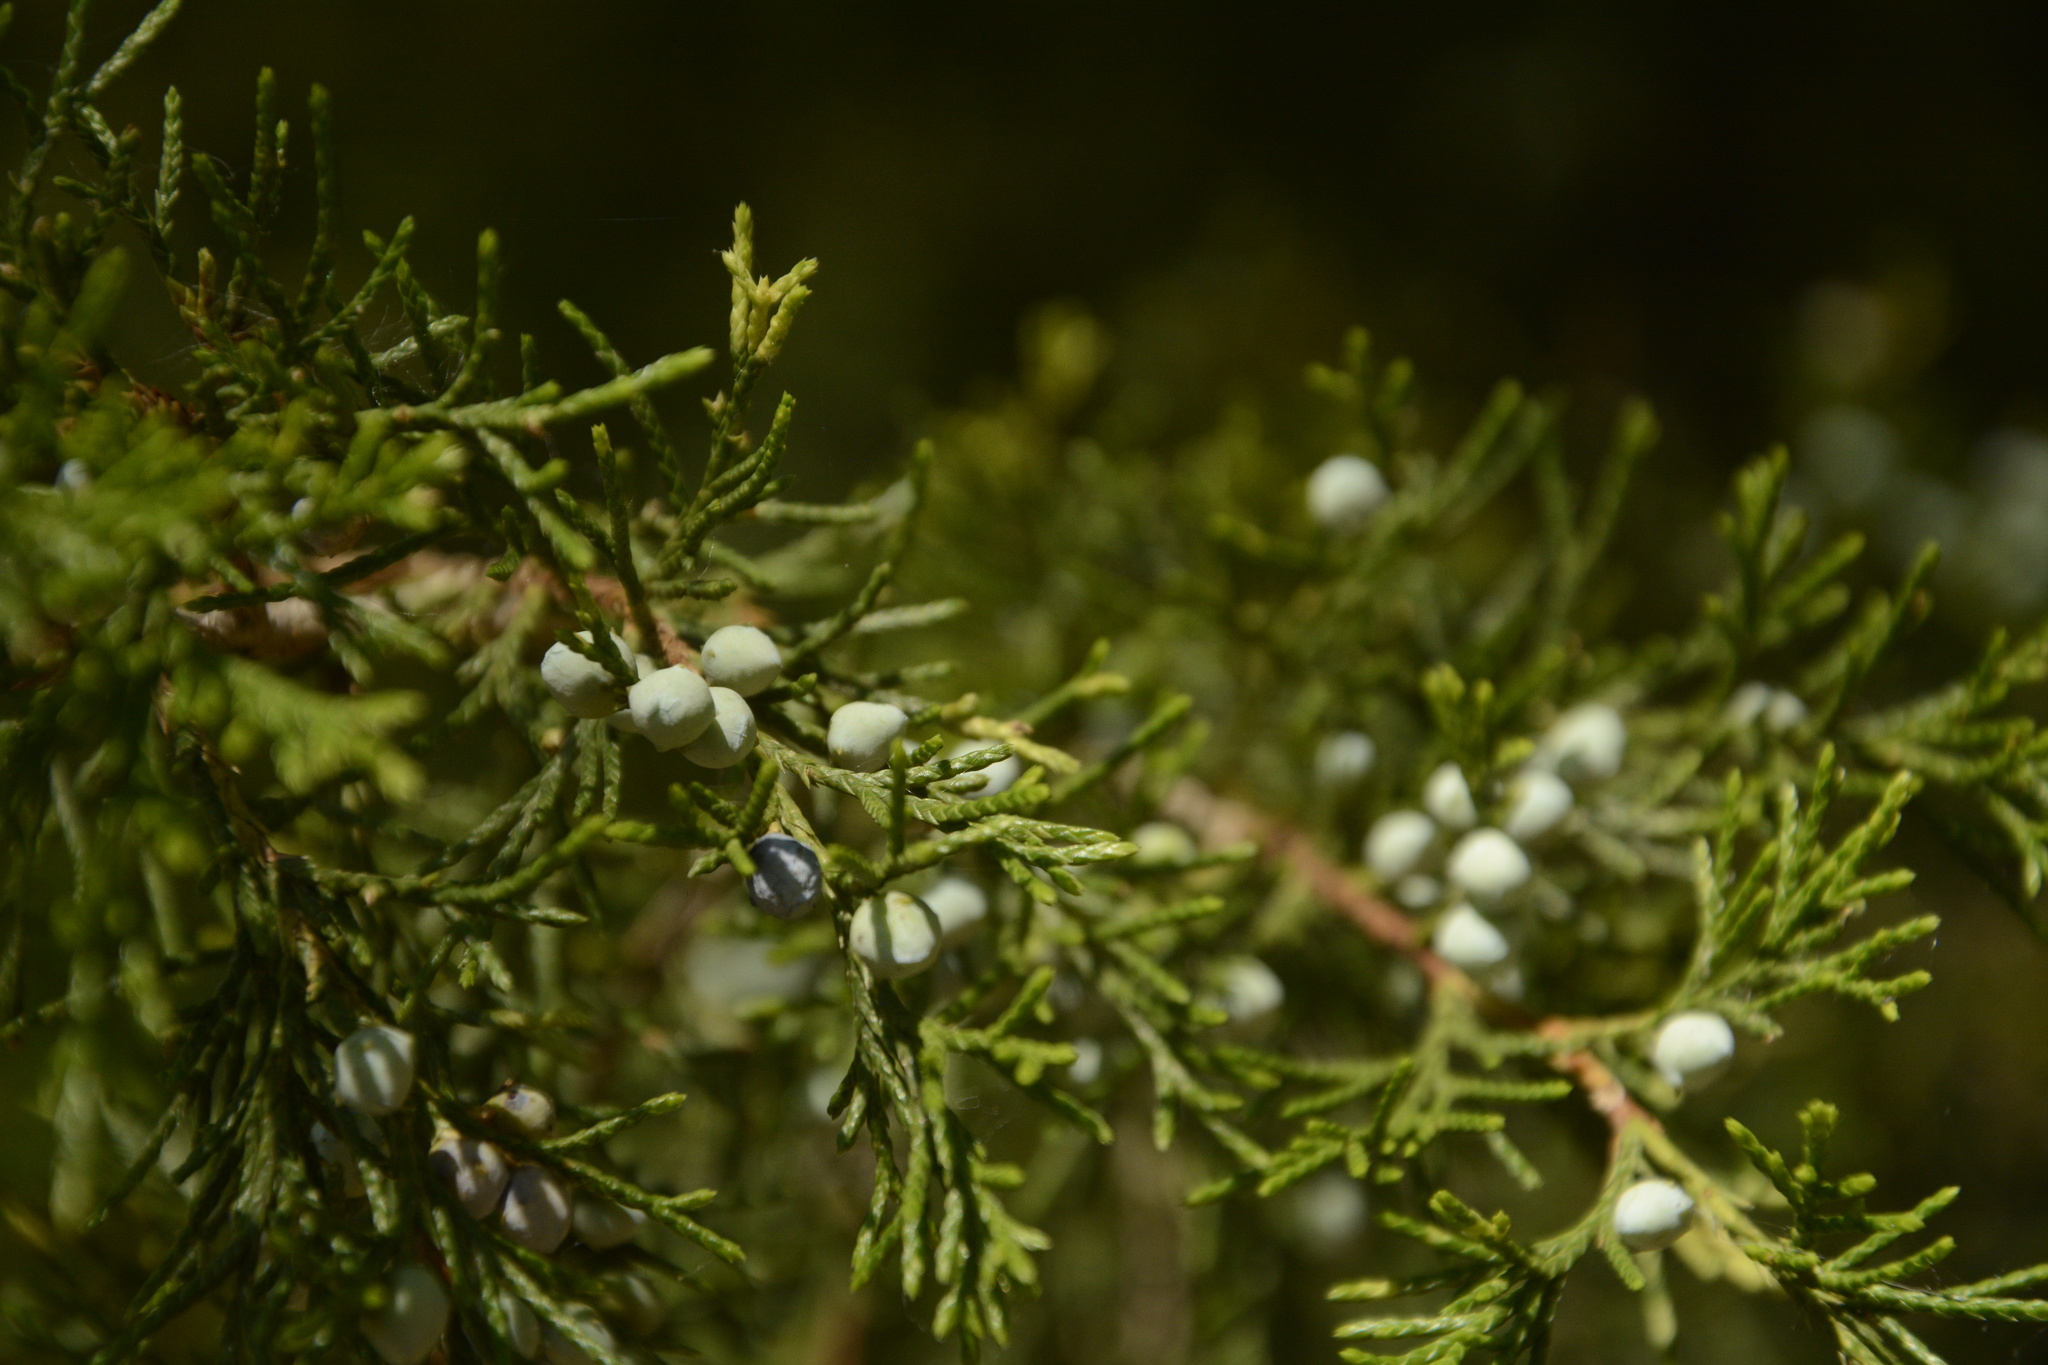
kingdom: Plantae
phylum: Tracheophyta
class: Pinopsida
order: Pinales
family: Cupressaceae
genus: Juniperus
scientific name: Juniperus virginiana
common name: Red juniper
